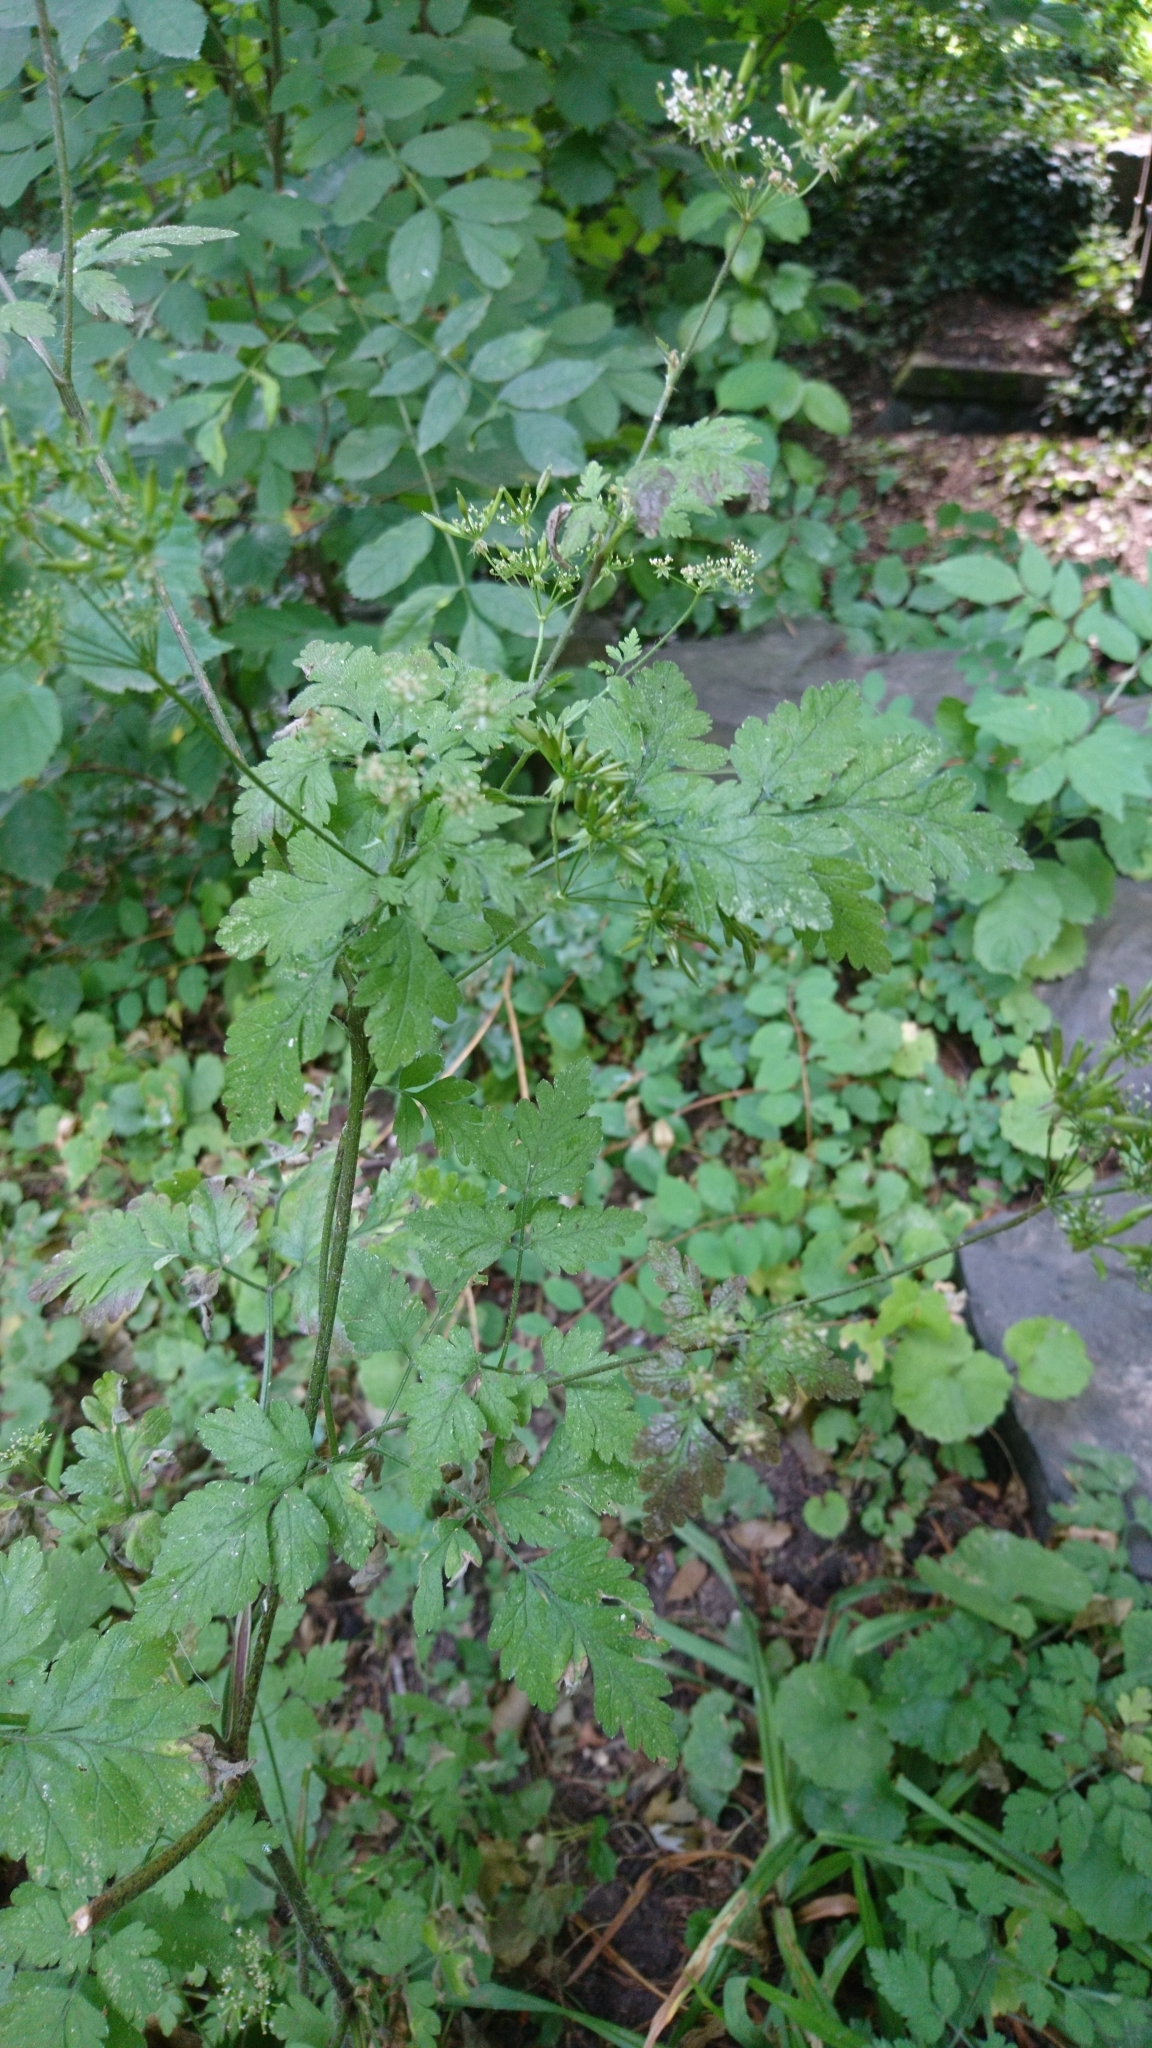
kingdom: Plantae
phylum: Tracheophyta
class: Magnoliopsida
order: Apiales
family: Apiaceae
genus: Chaerophyllum
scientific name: Chaerophyllum temulum
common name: Rough chervil
